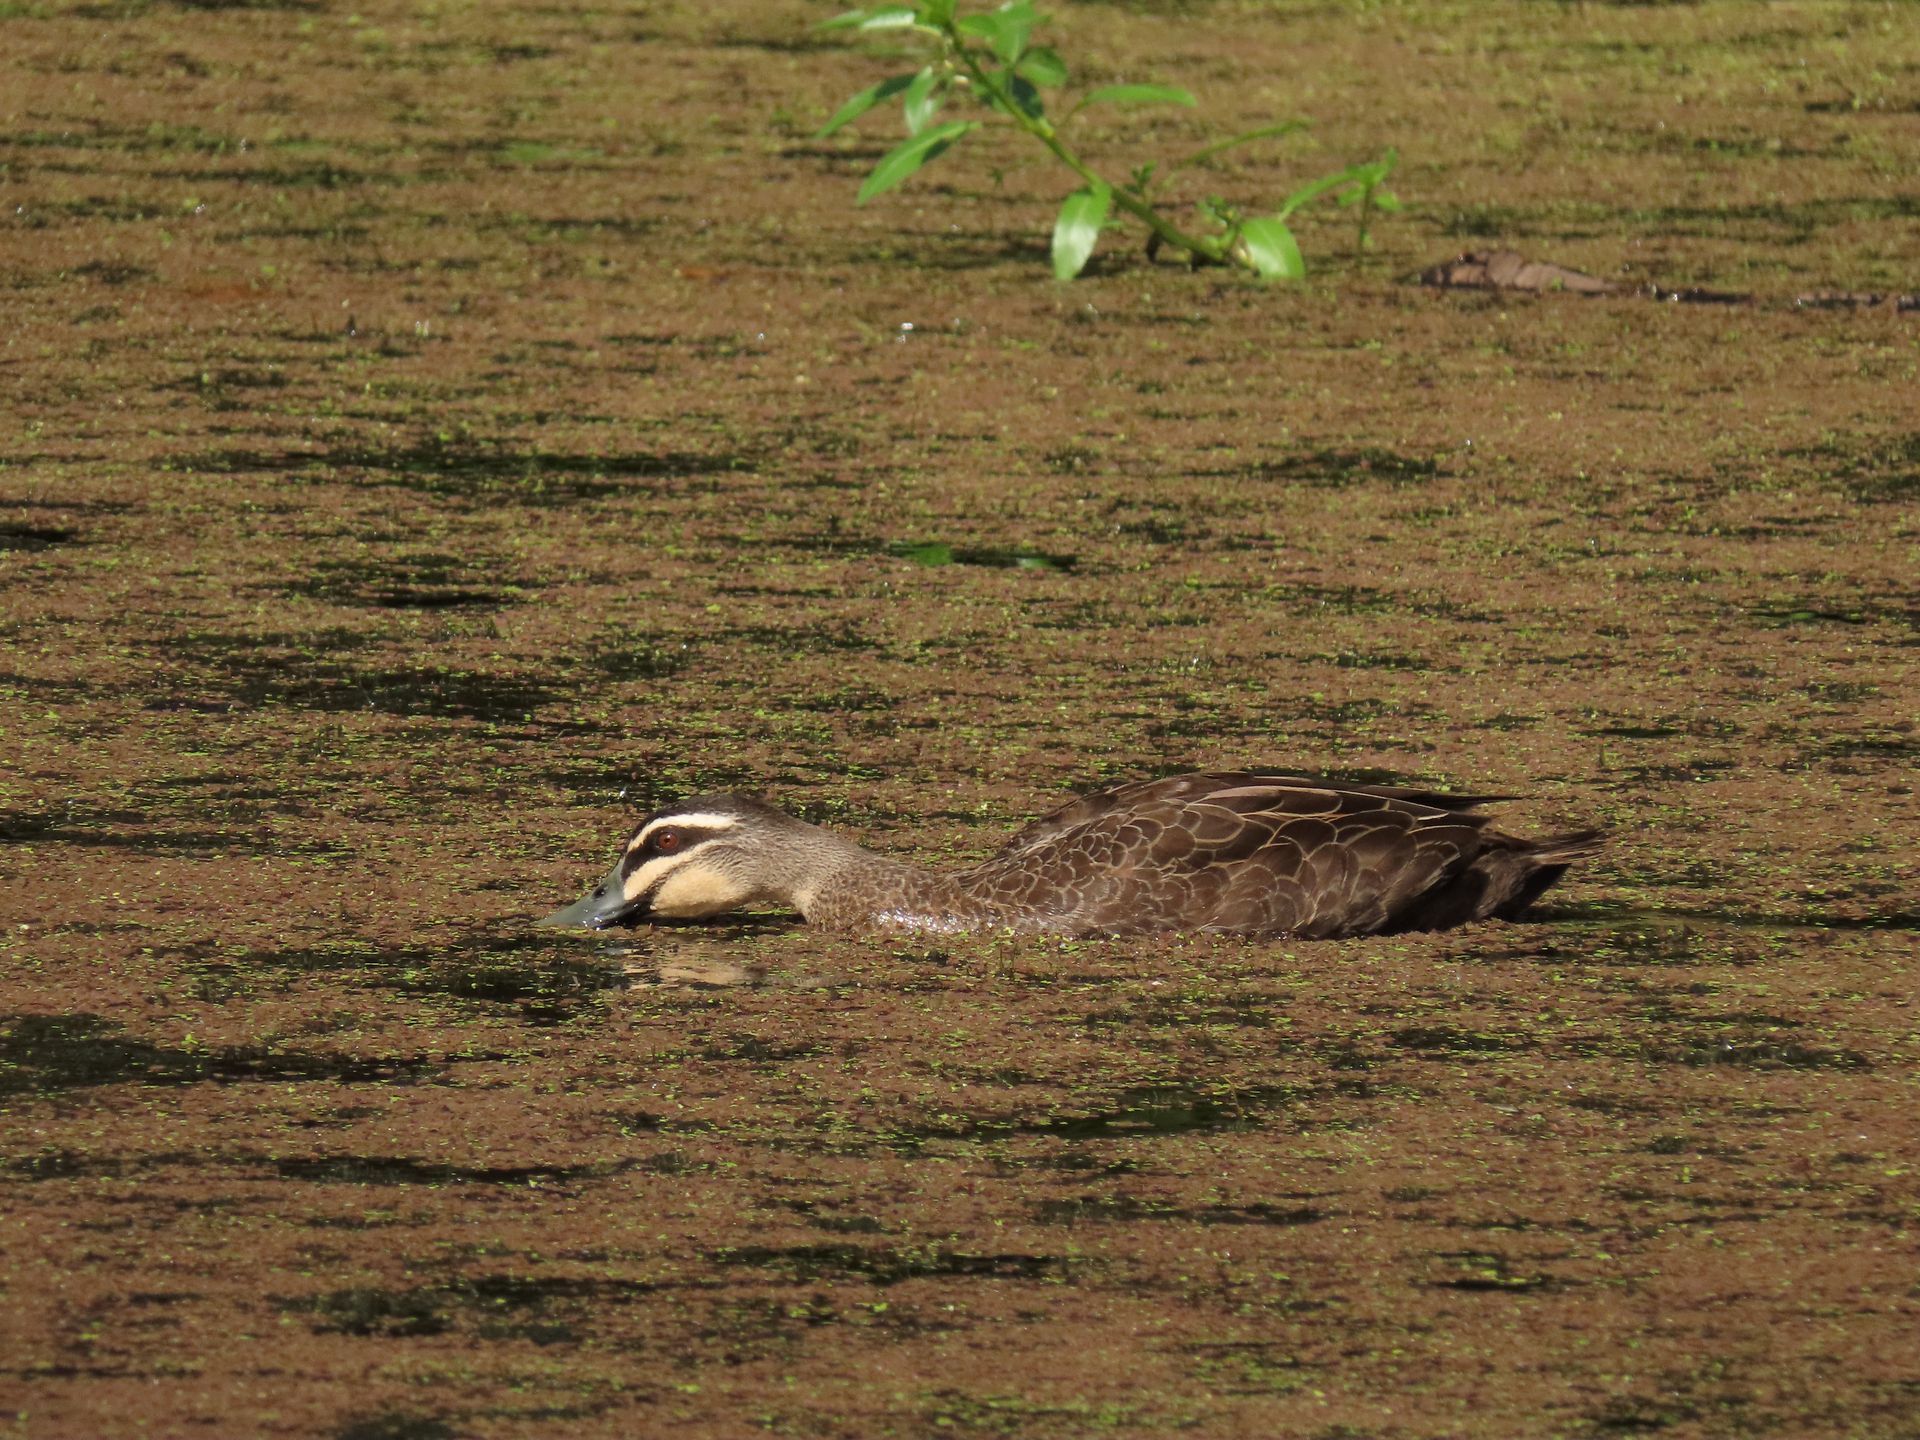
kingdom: Animalia
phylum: Chordata
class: Aves
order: Anseriformes
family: Anatidae
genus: Anas
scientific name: Anas superciliosa
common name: Pacific black duck
